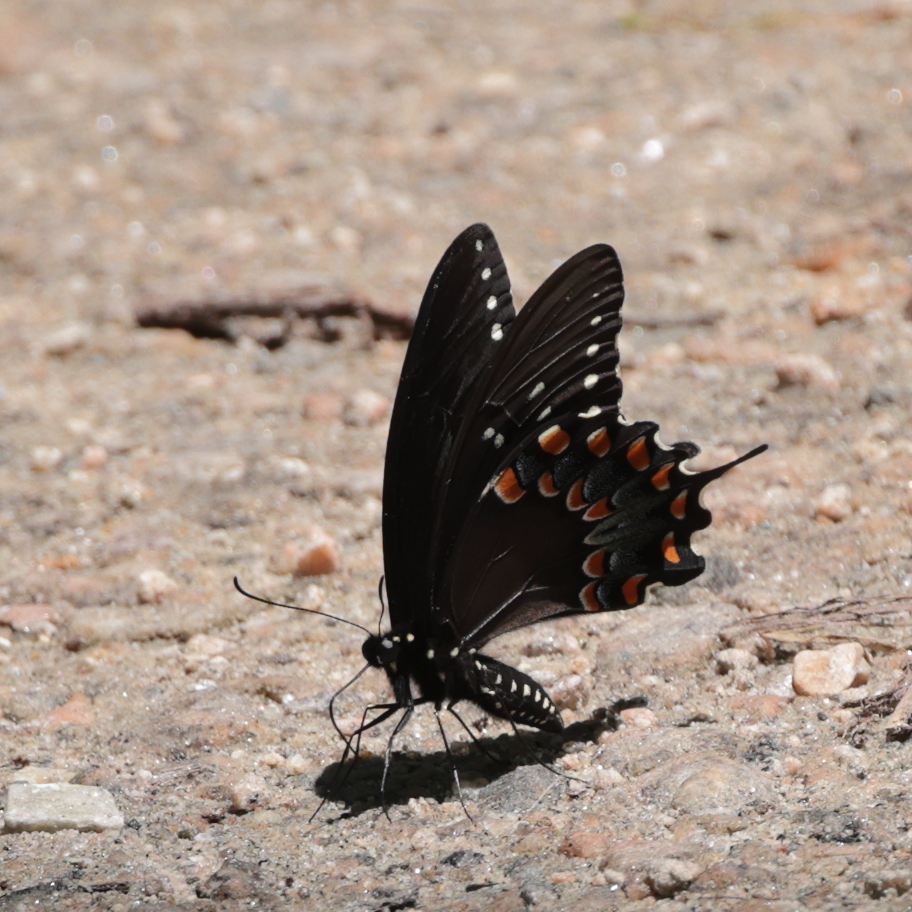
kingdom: Animalia
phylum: Arthropoda
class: Insecta
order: Lepidoptera
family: Papilionidae
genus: Papilio
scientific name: Papilio troilus
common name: Spicebush swallowtail
